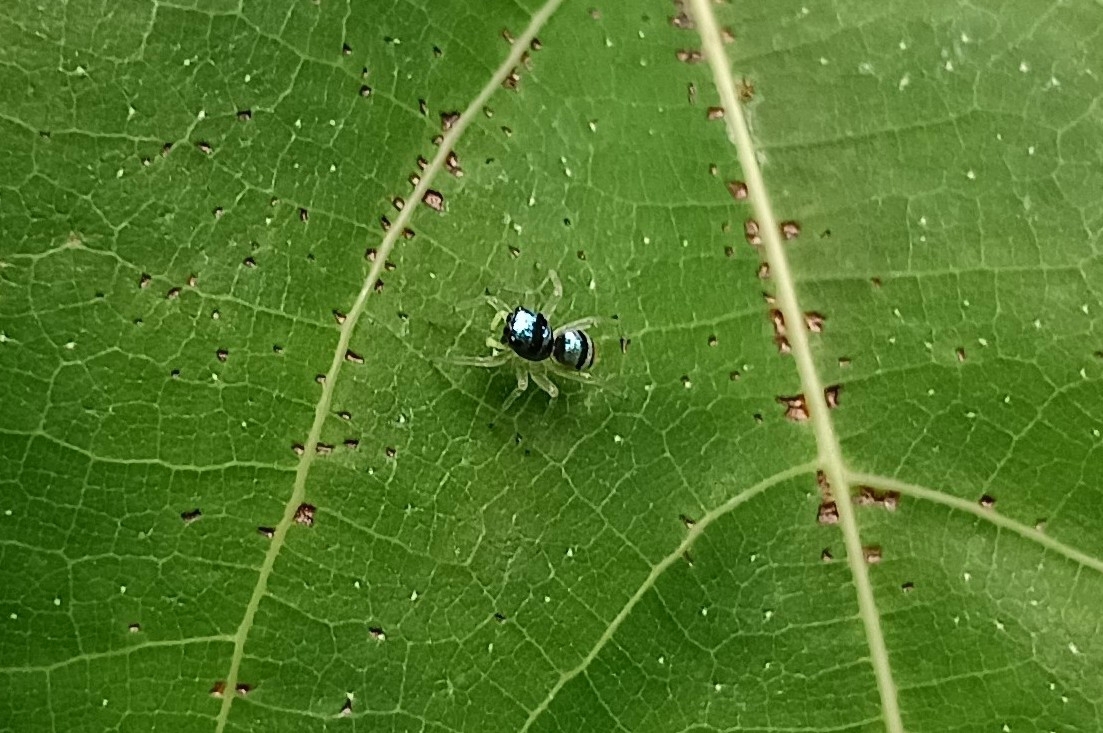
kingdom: Animalia
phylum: Arthropoda
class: Arachnida
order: Araneae
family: Salticidae
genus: Phintella
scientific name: Phintella vittata
